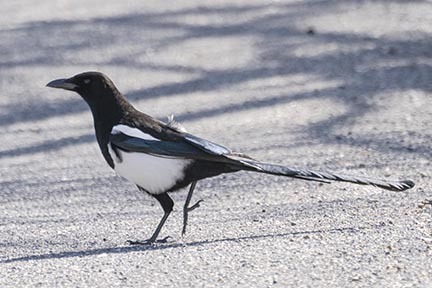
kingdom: Animalia
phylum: Chordata
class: Aves
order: Passeriformes
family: Corvidae
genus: Pica
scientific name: Pica hudsonia
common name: Black-billed magpie
